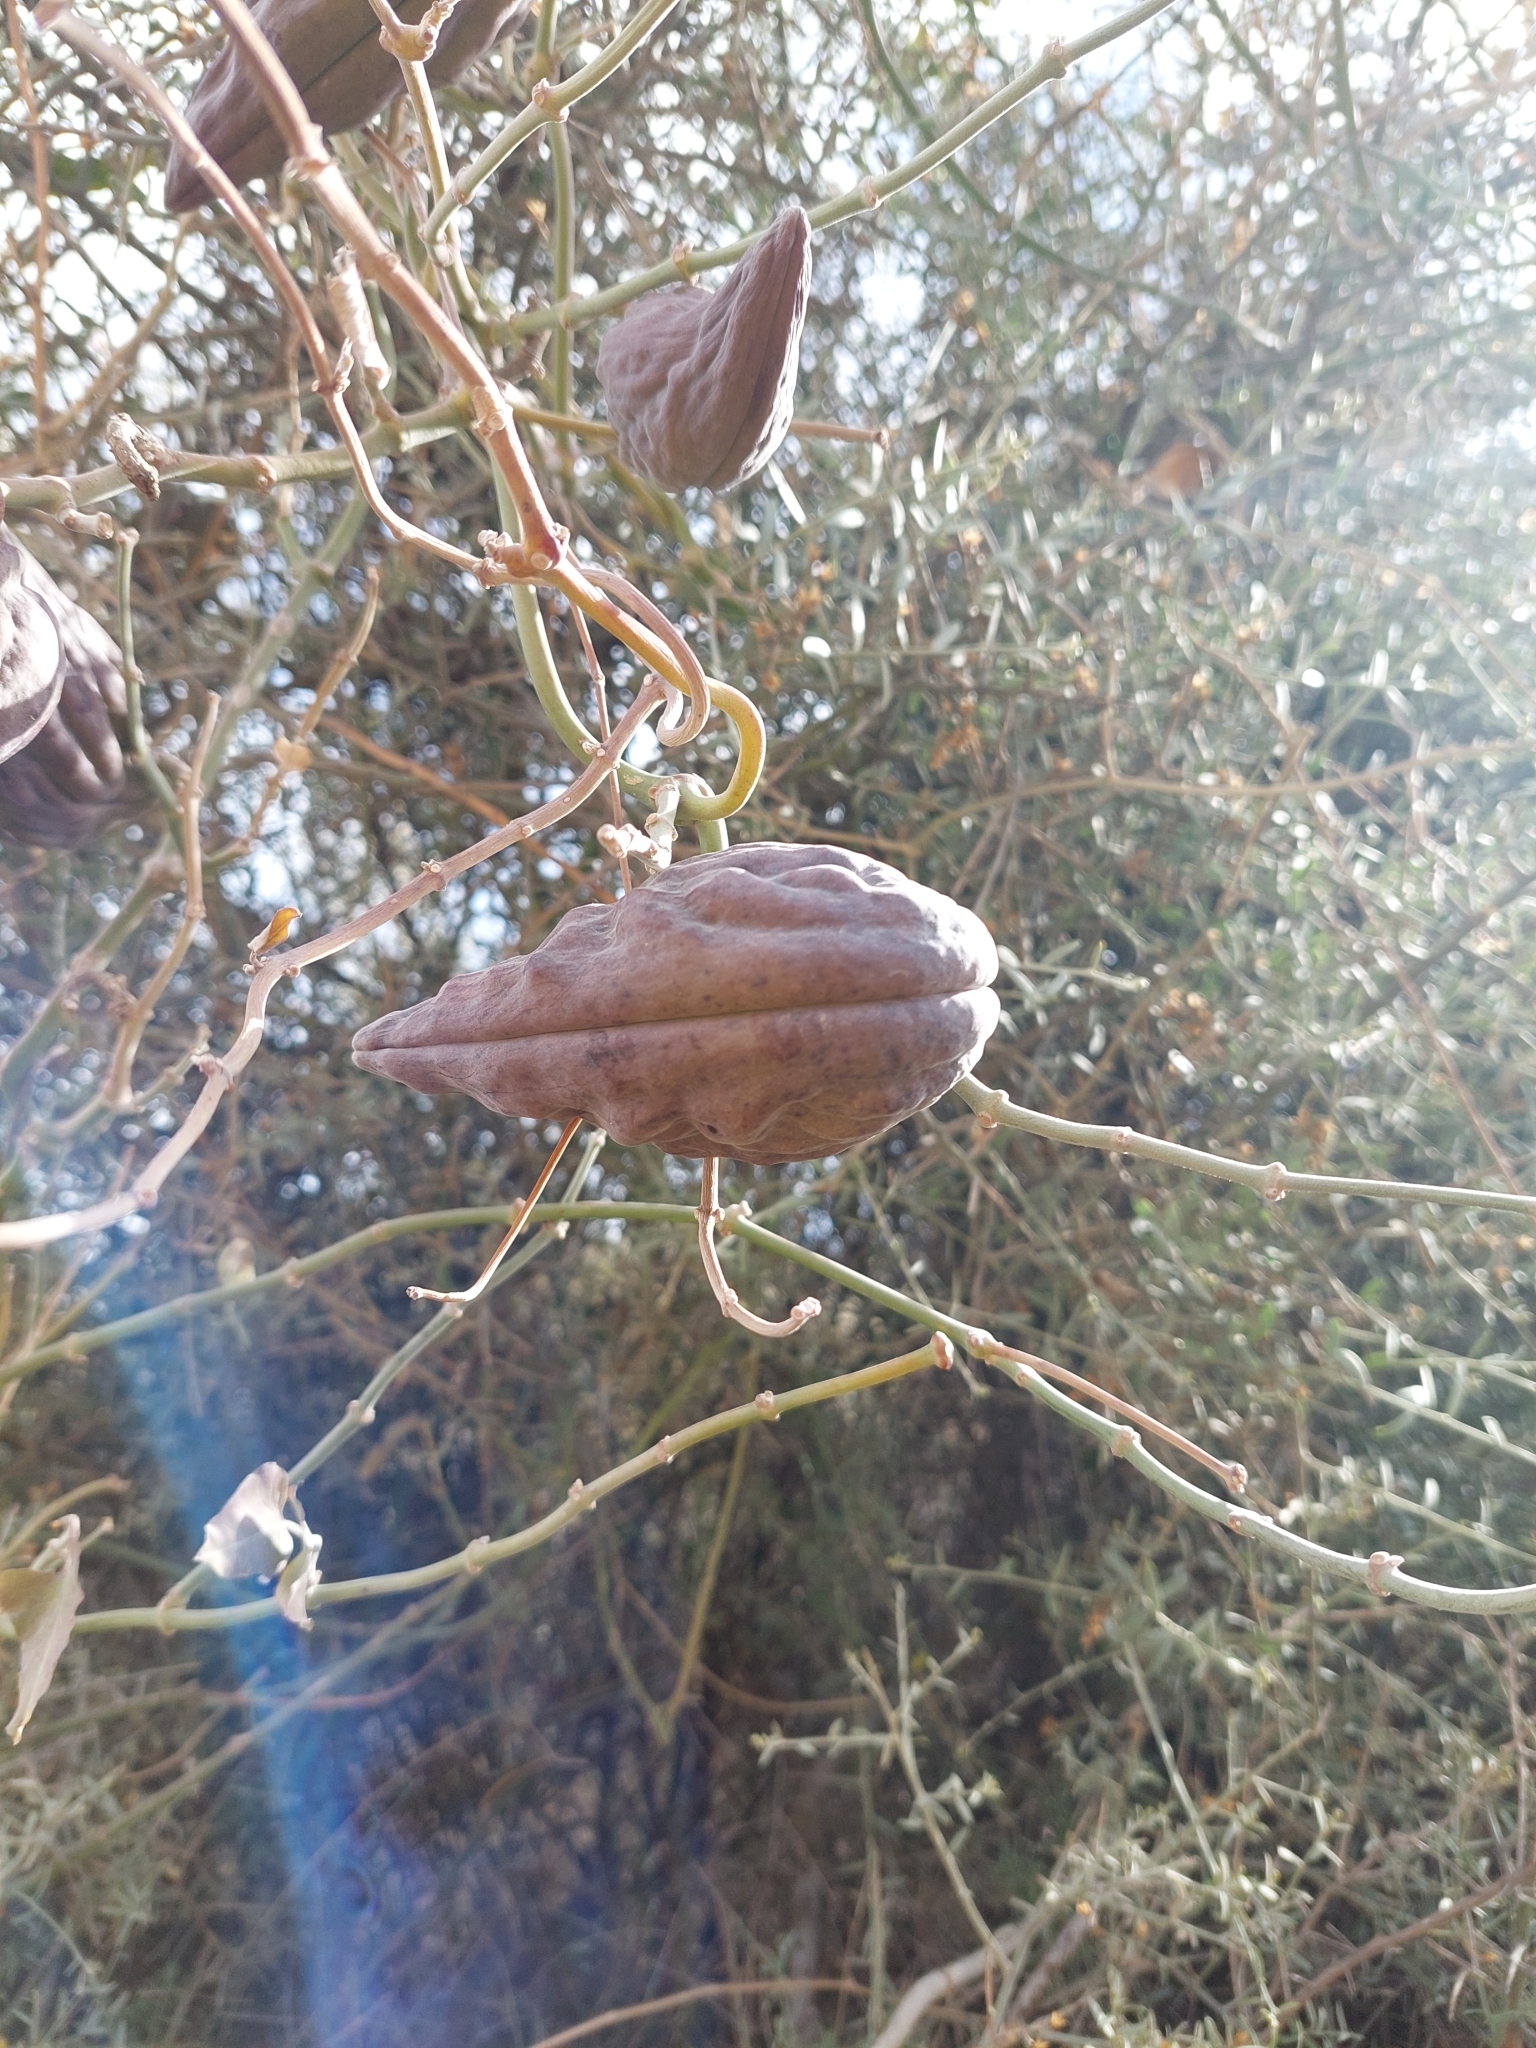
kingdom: Plantae
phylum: Tracheophyta
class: Magnoliopsida
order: Gentianales
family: Apocynaceae
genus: Araujia
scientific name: Araujia odorata
